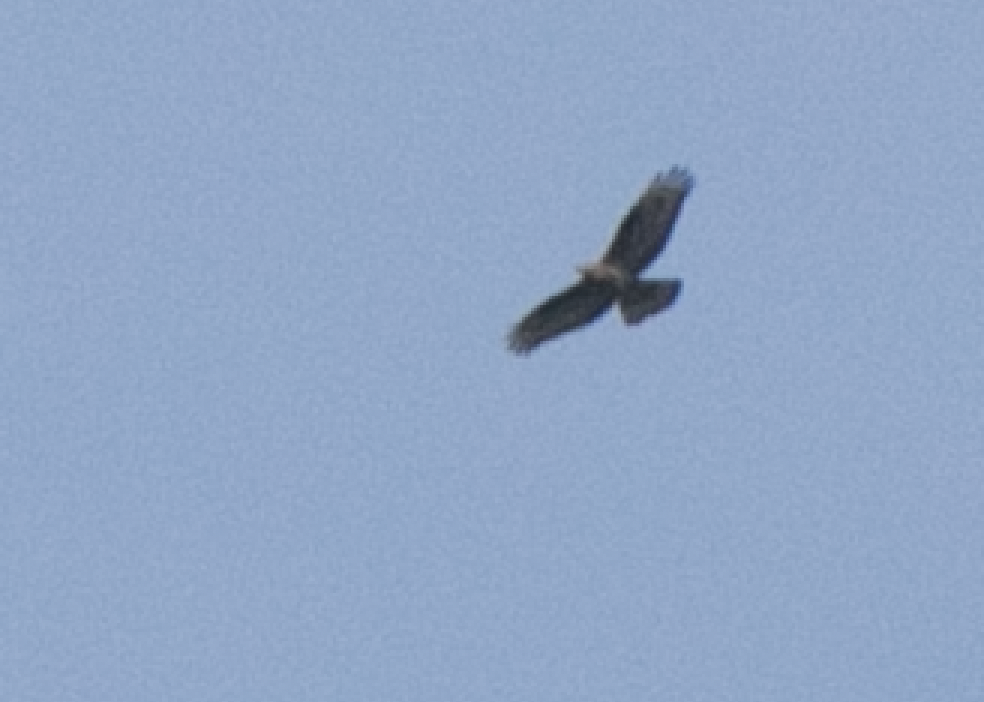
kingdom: Animalia
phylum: Chordata
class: Aves
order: Accipitriformes
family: Accipitridae
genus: Pernis
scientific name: Pernis apivorus
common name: European honey buzzard
